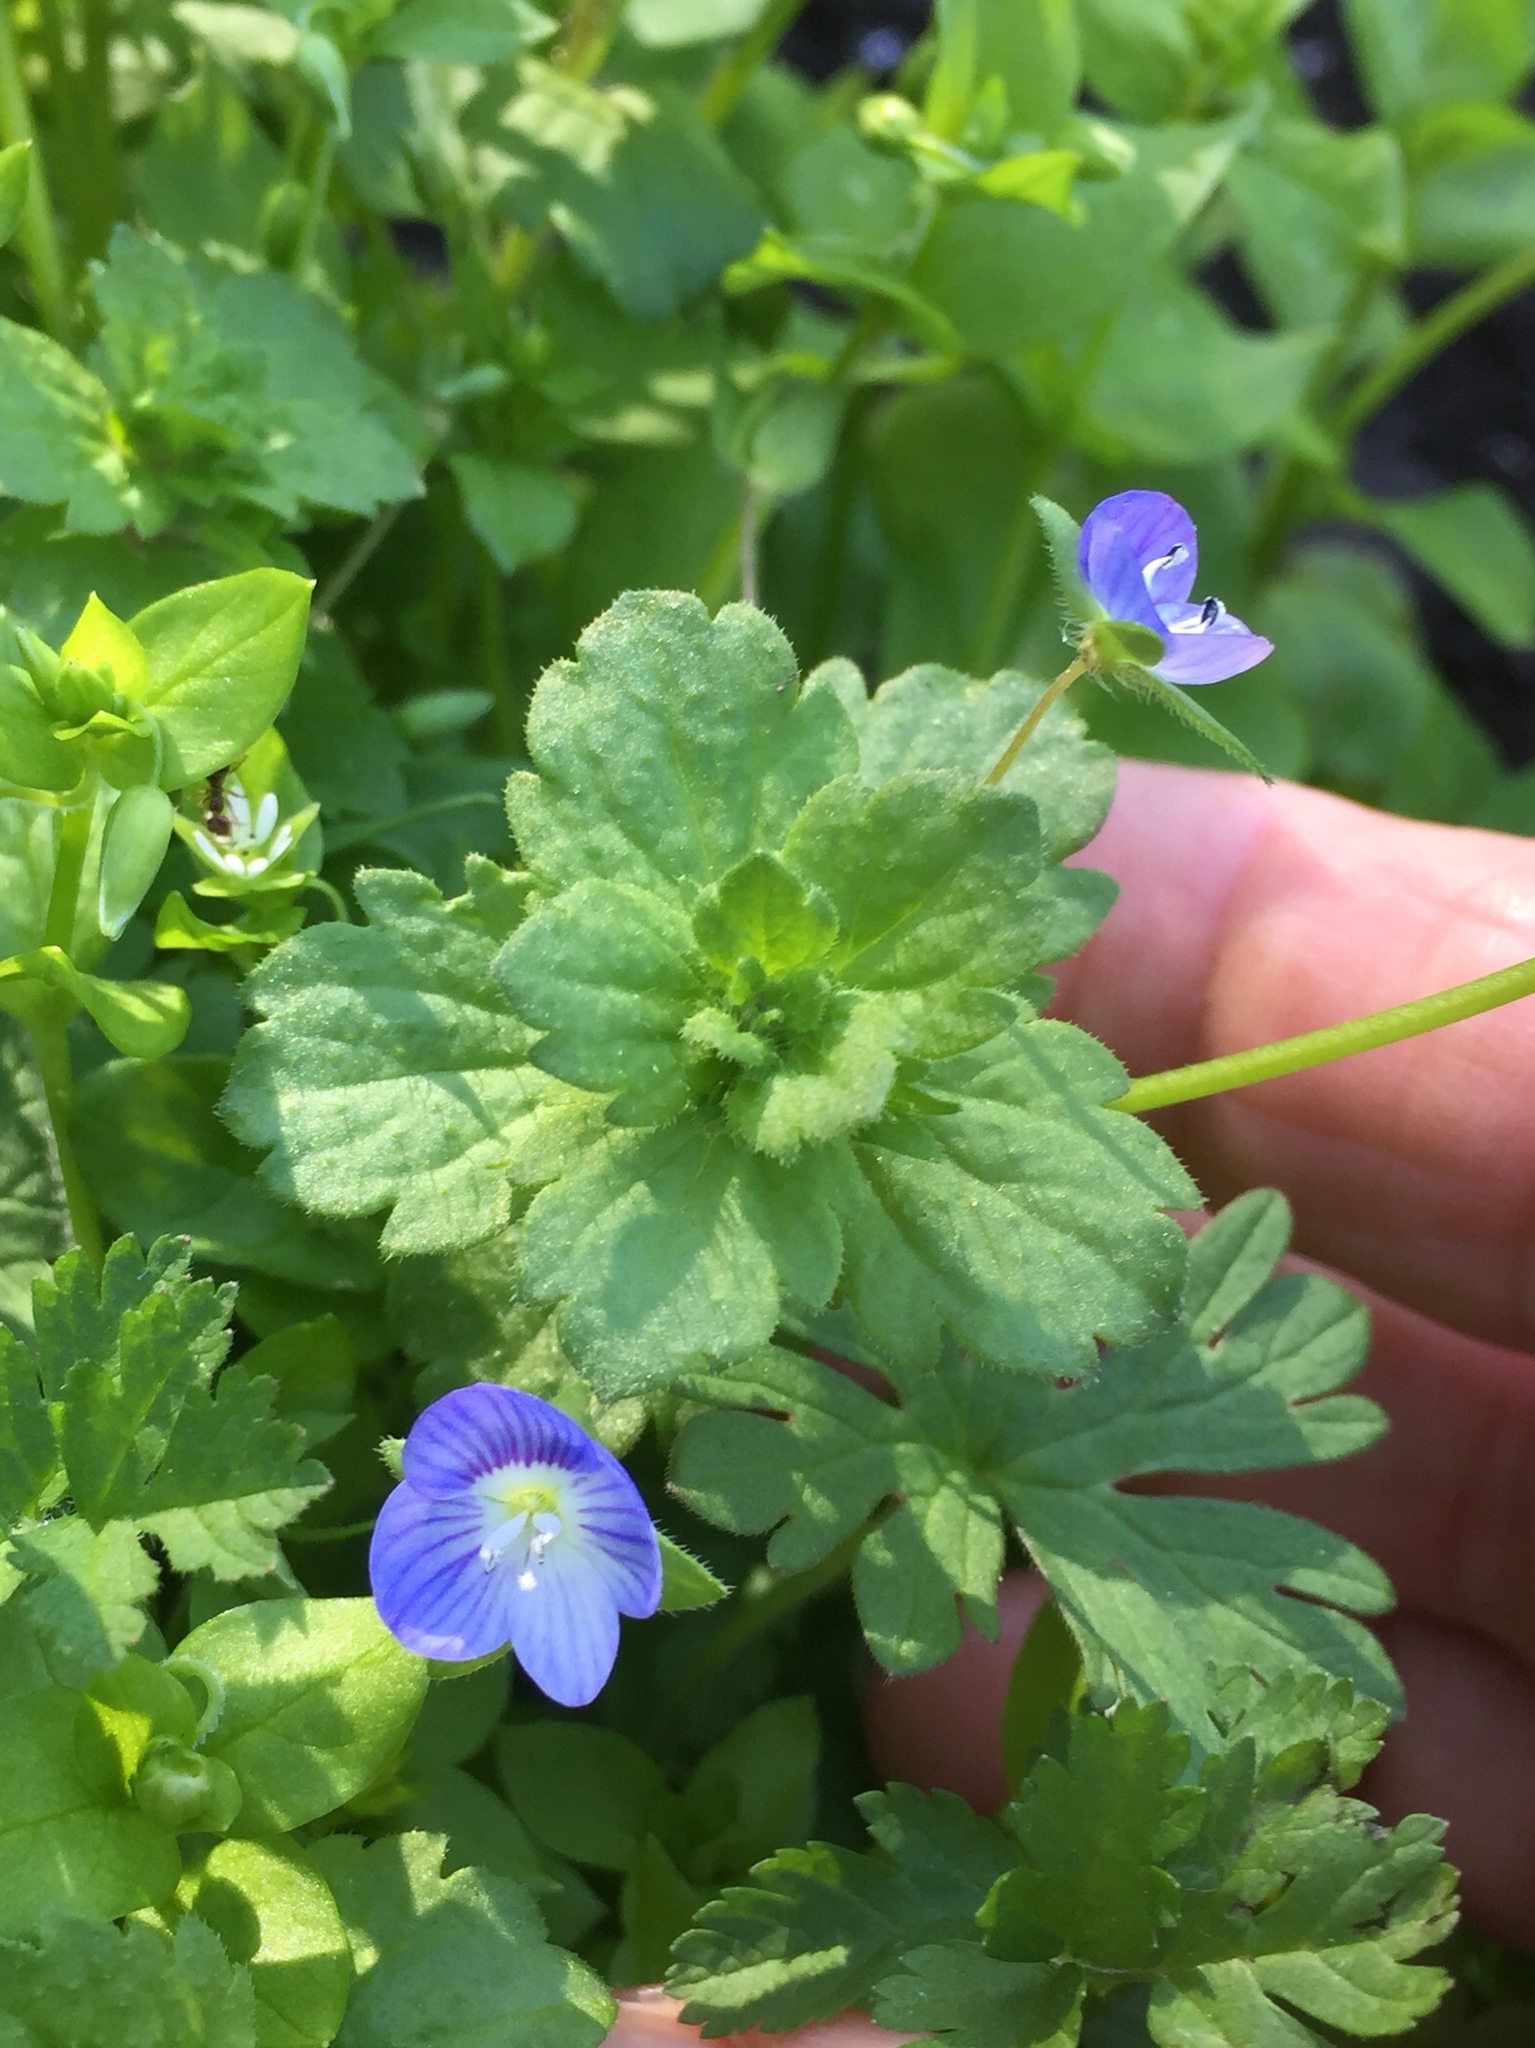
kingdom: Plantae
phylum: Tracheophyta
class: Magnoliopsida
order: Lamiales
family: Plantaginaceae
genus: Veronica
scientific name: Veronica persica
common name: Common field-speedwell
